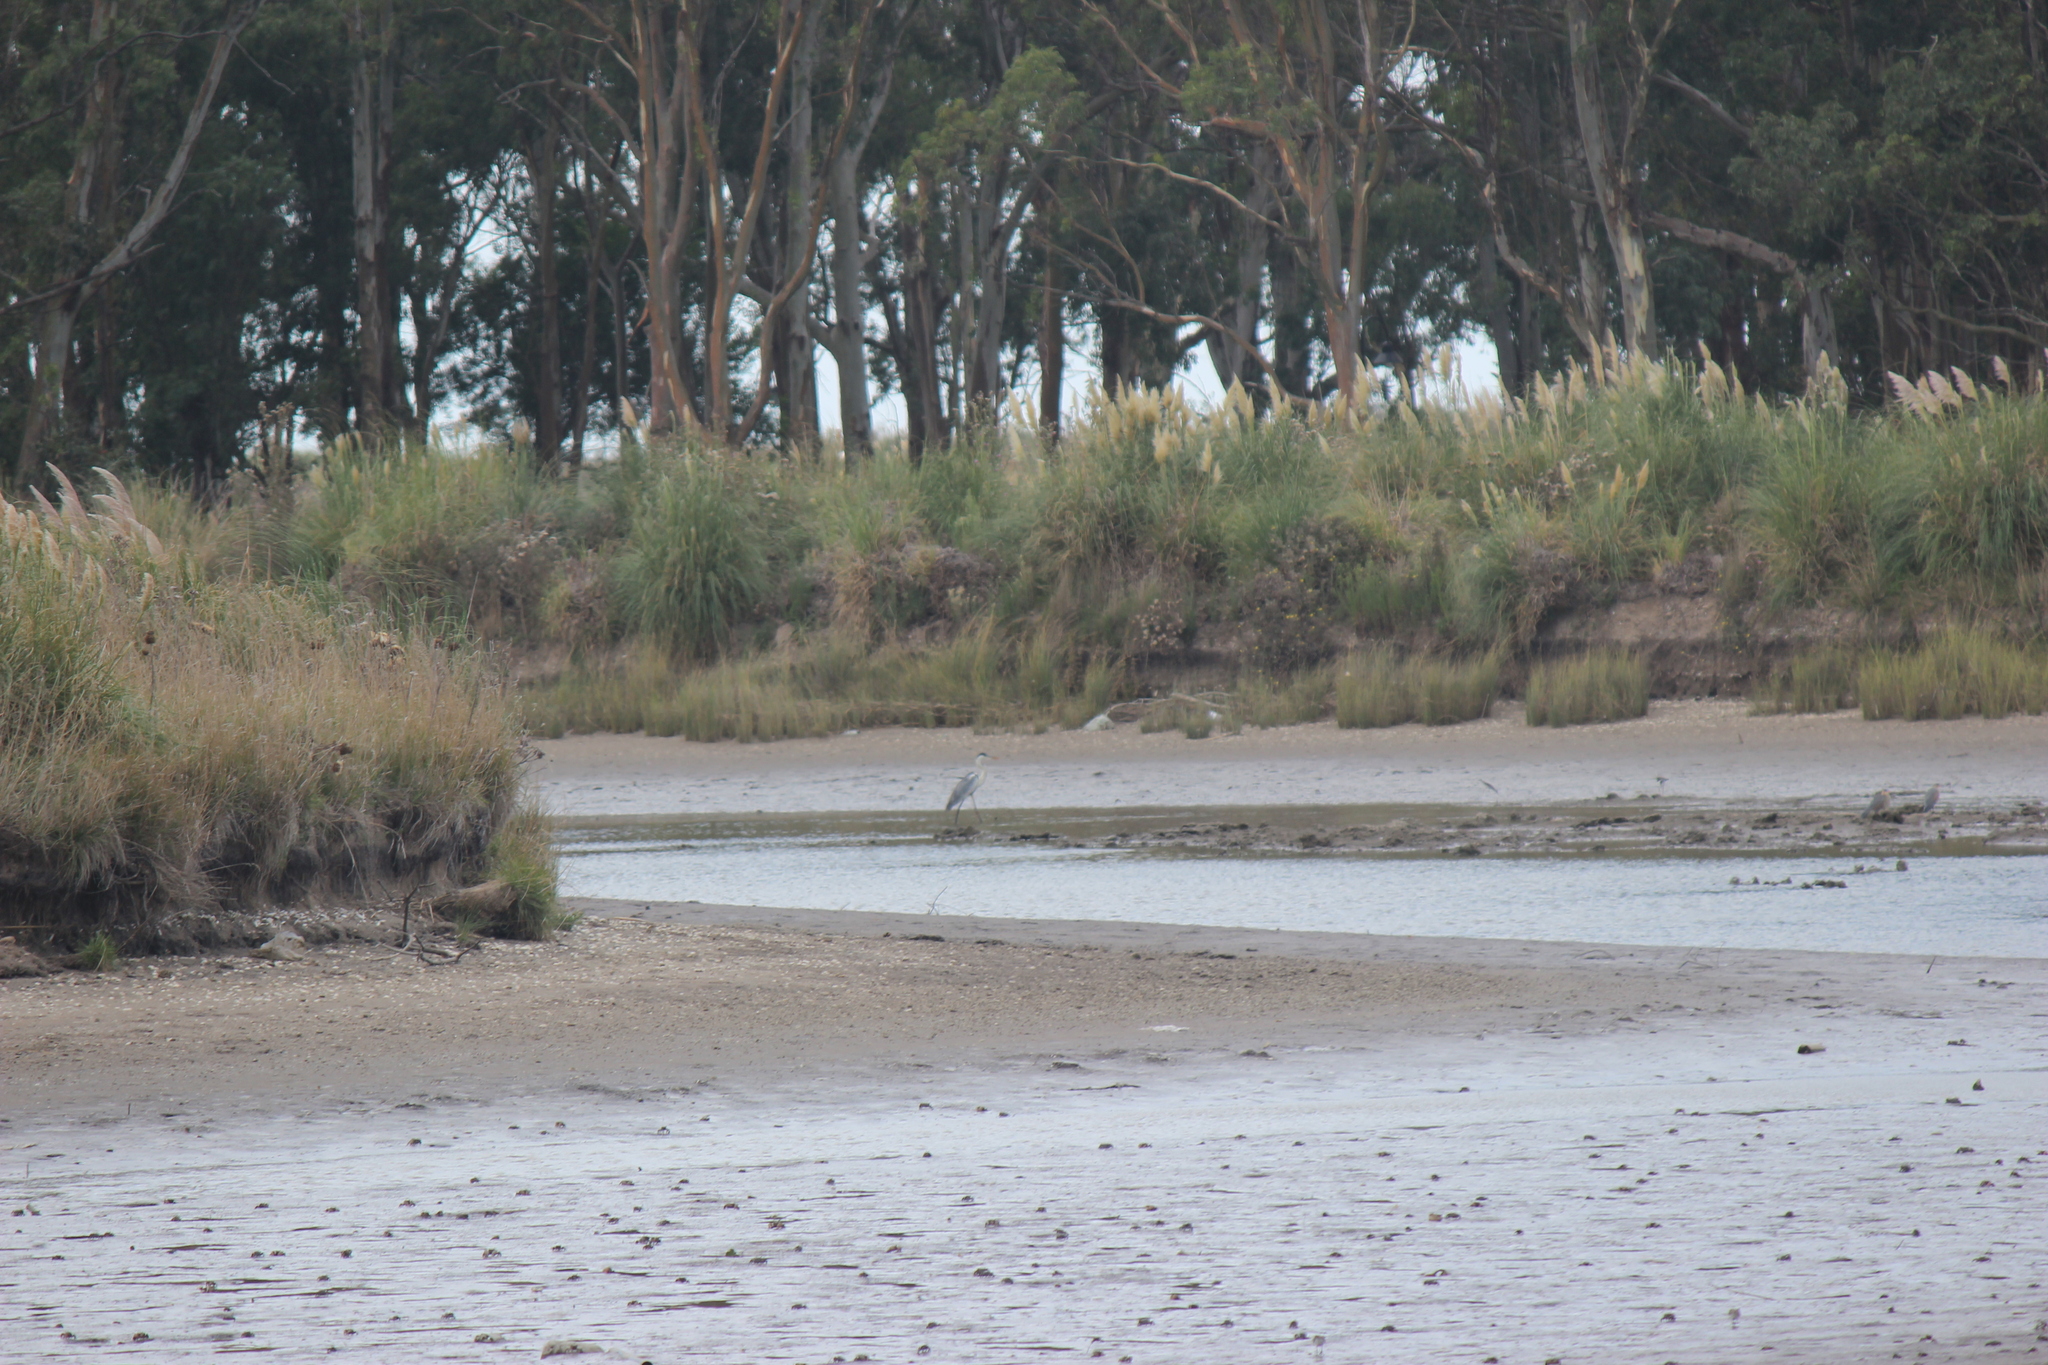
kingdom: Animalia
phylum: Chordata
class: Aves
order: Pelecaniformes
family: Ardeidae
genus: Ardea
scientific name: Ardea cocoi
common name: Cocoi heron
